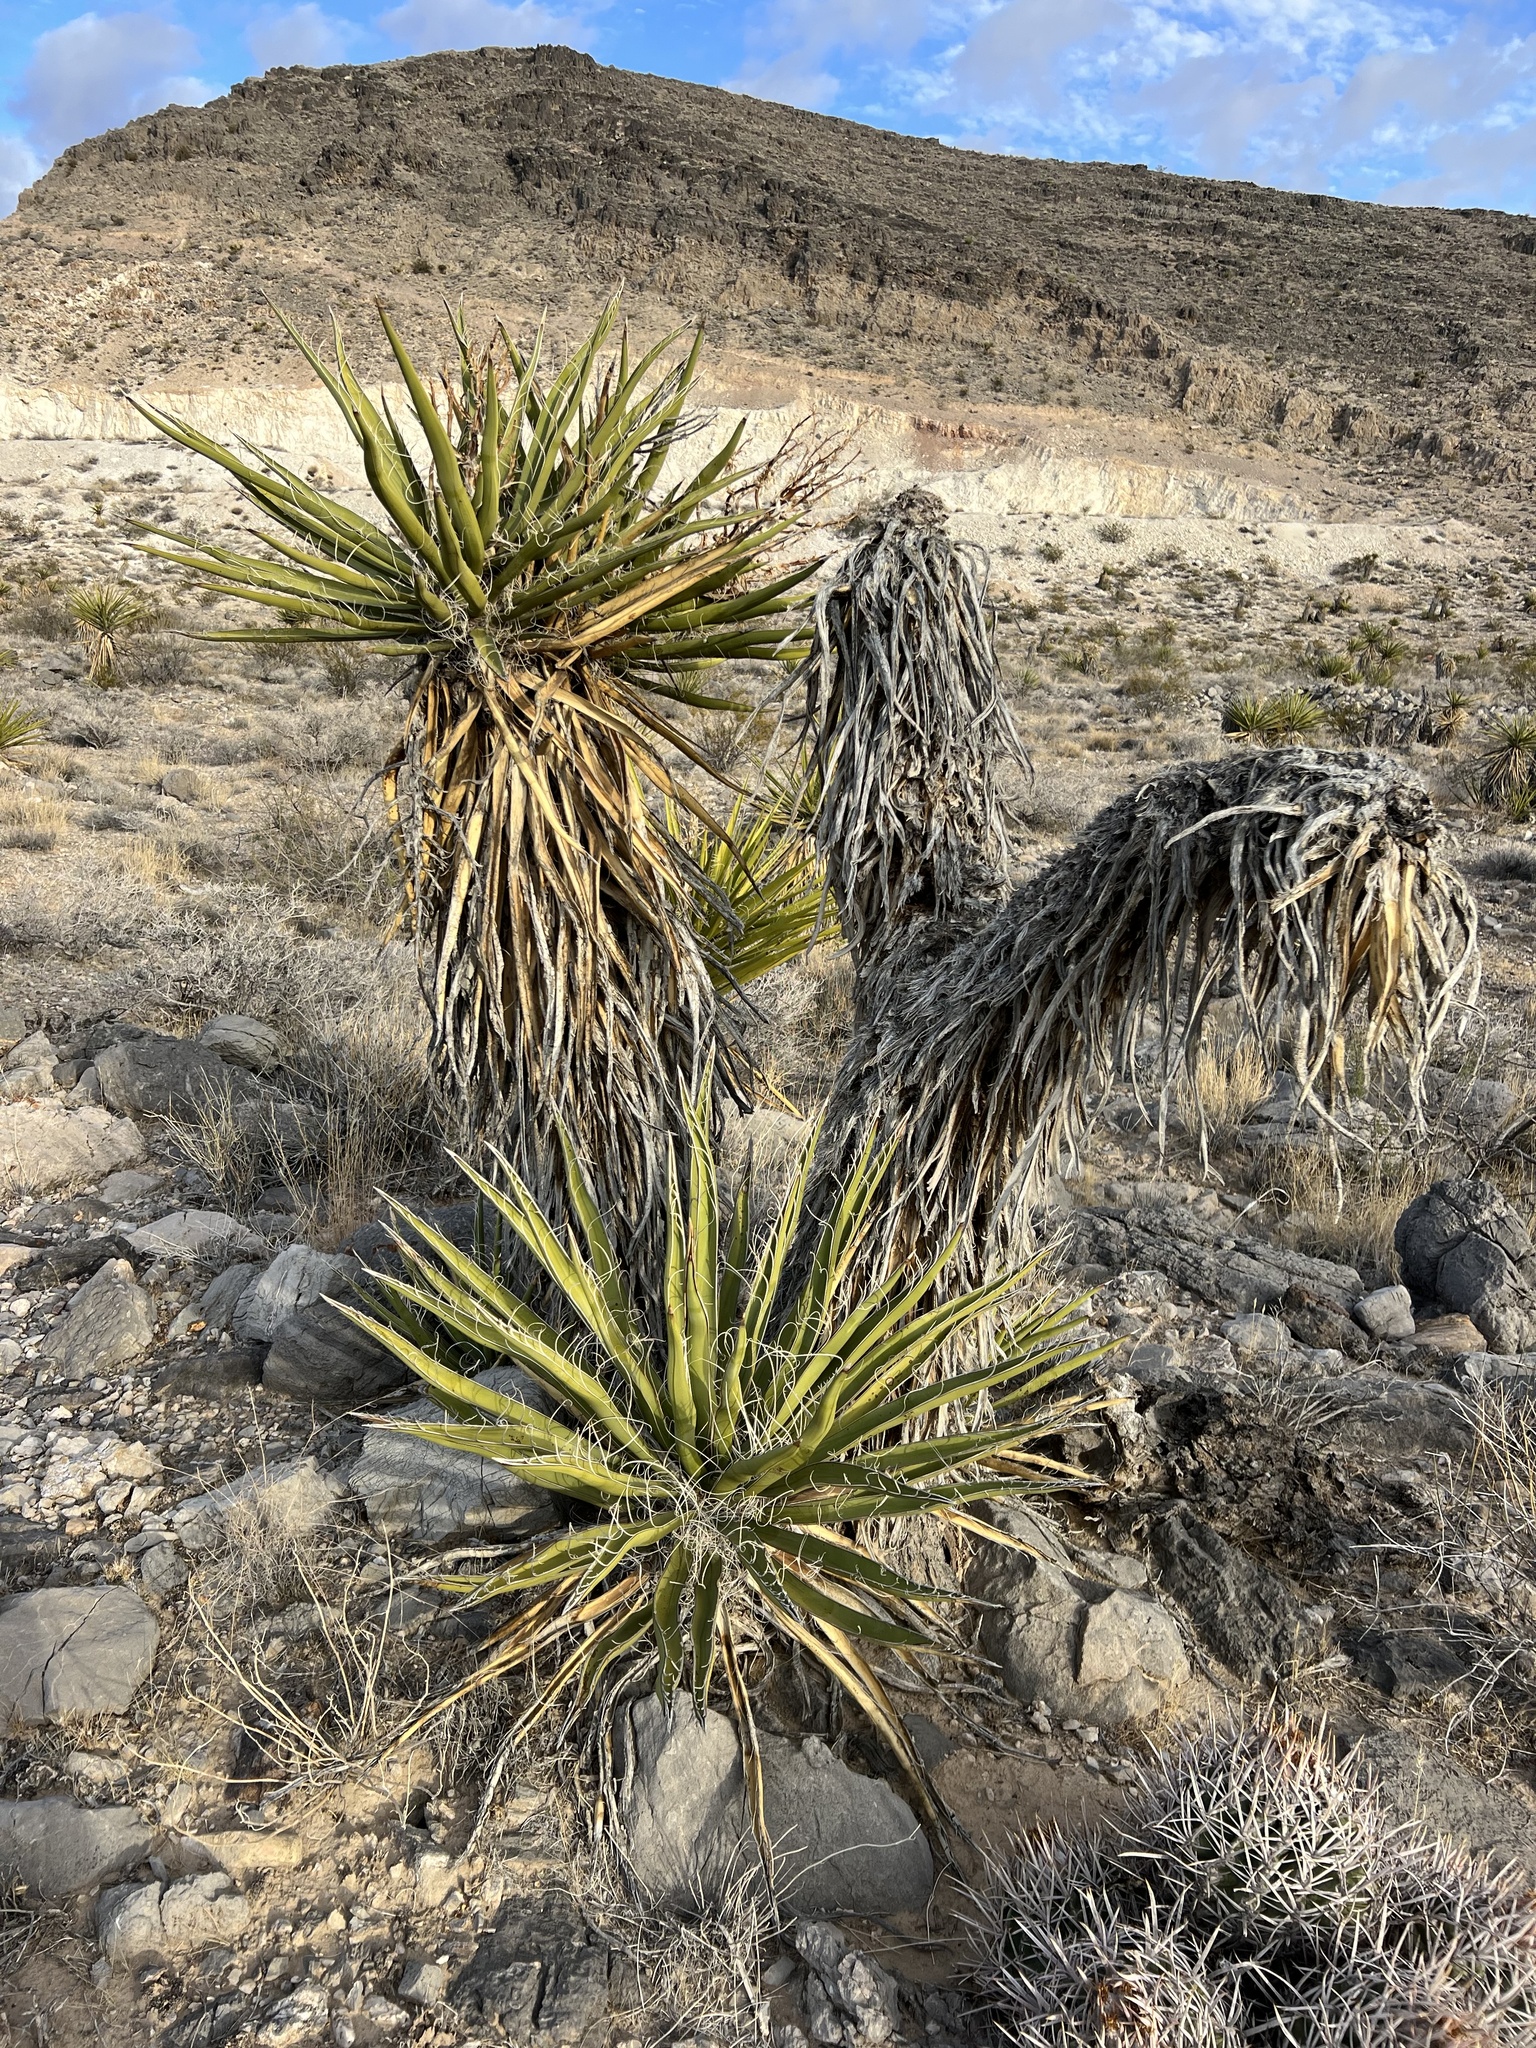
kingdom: Plantae
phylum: Tracheophyta
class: Liliopsida
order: Asparagales
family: Asparagaceae
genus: Yucca
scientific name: Yucca schidigera
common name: Mojave yucca
